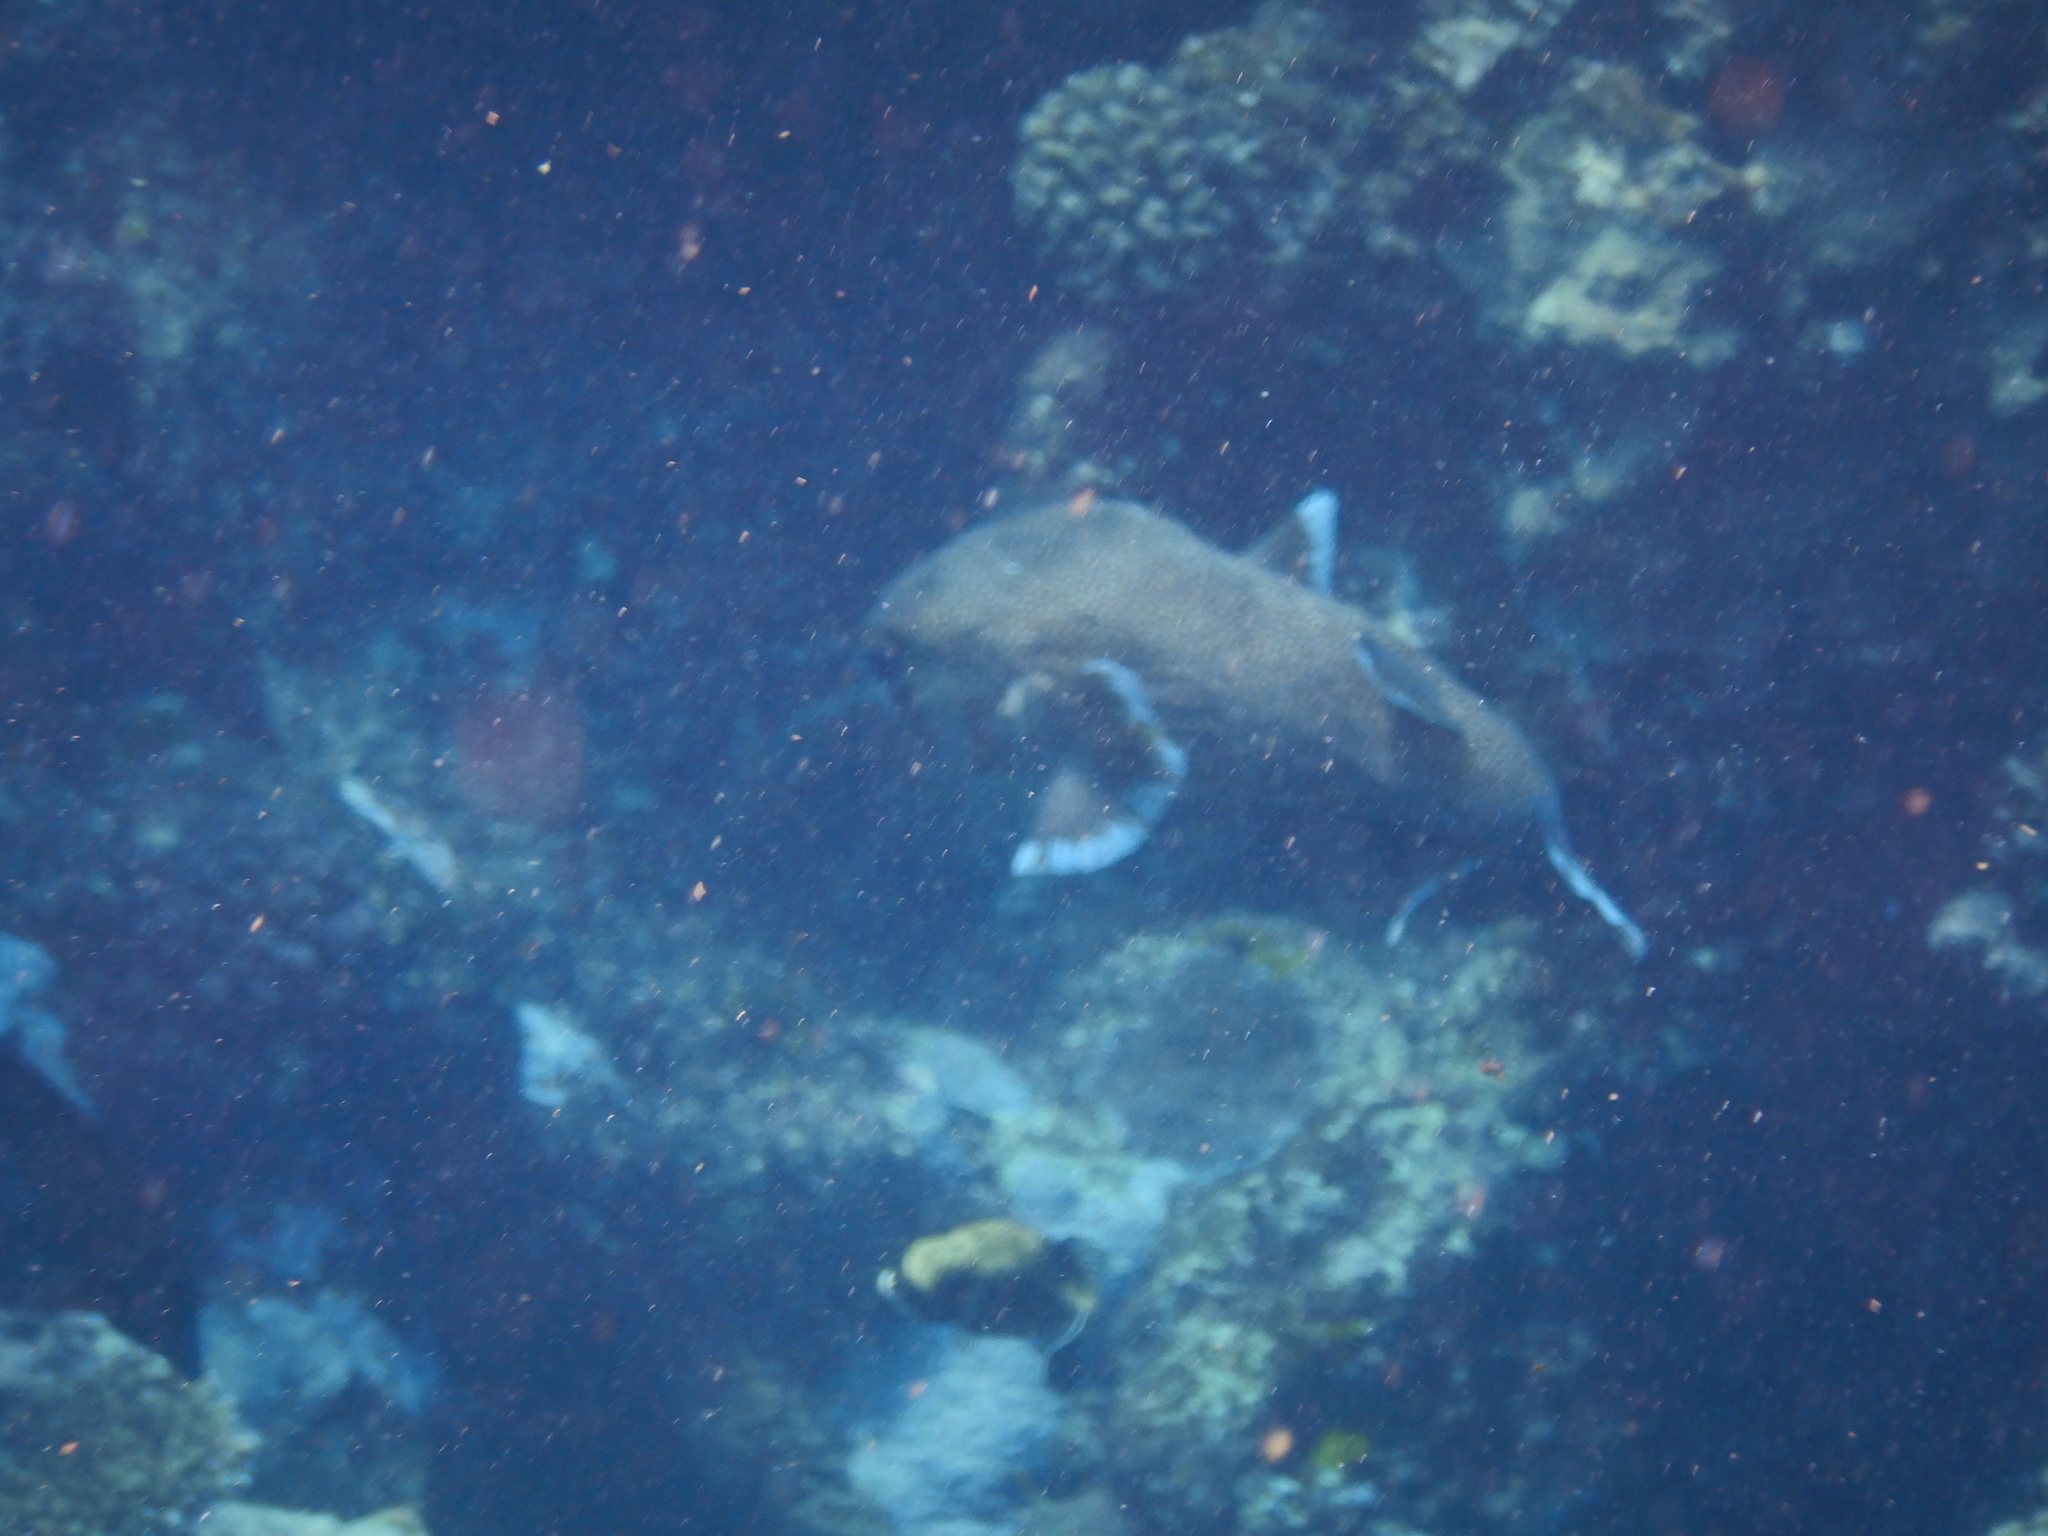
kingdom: Animalia
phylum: Chordata
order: Tetraodontiformes
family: Tetraodontidae
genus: Arothron
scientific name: Arothron diadematus
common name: Masked puffer
